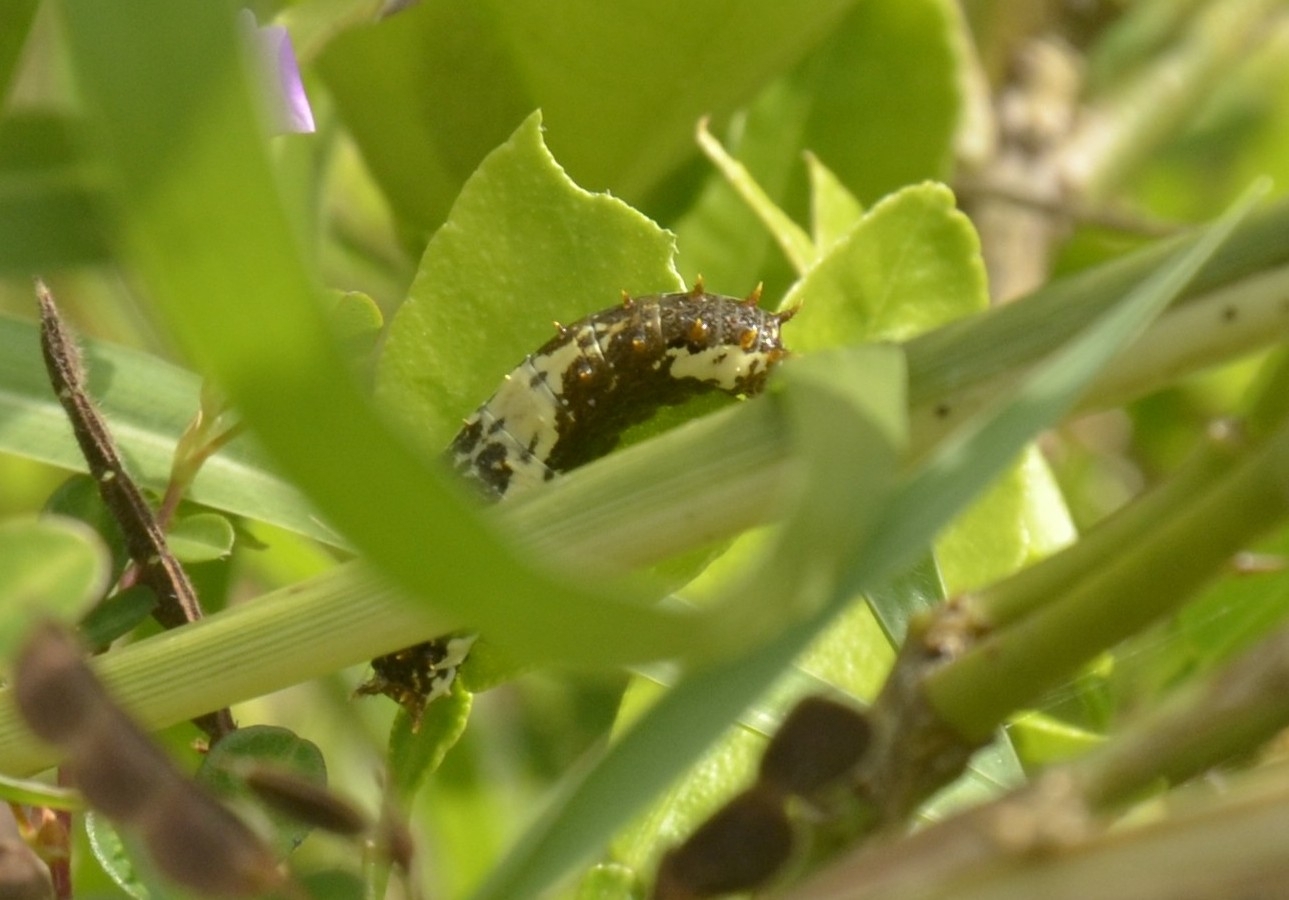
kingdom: Animalia
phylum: Arthropoda
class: Insecta
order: Lepidoptera
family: Papilionidae
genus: Papilio
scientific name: Papilio demoleus
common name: Lime butterfly
